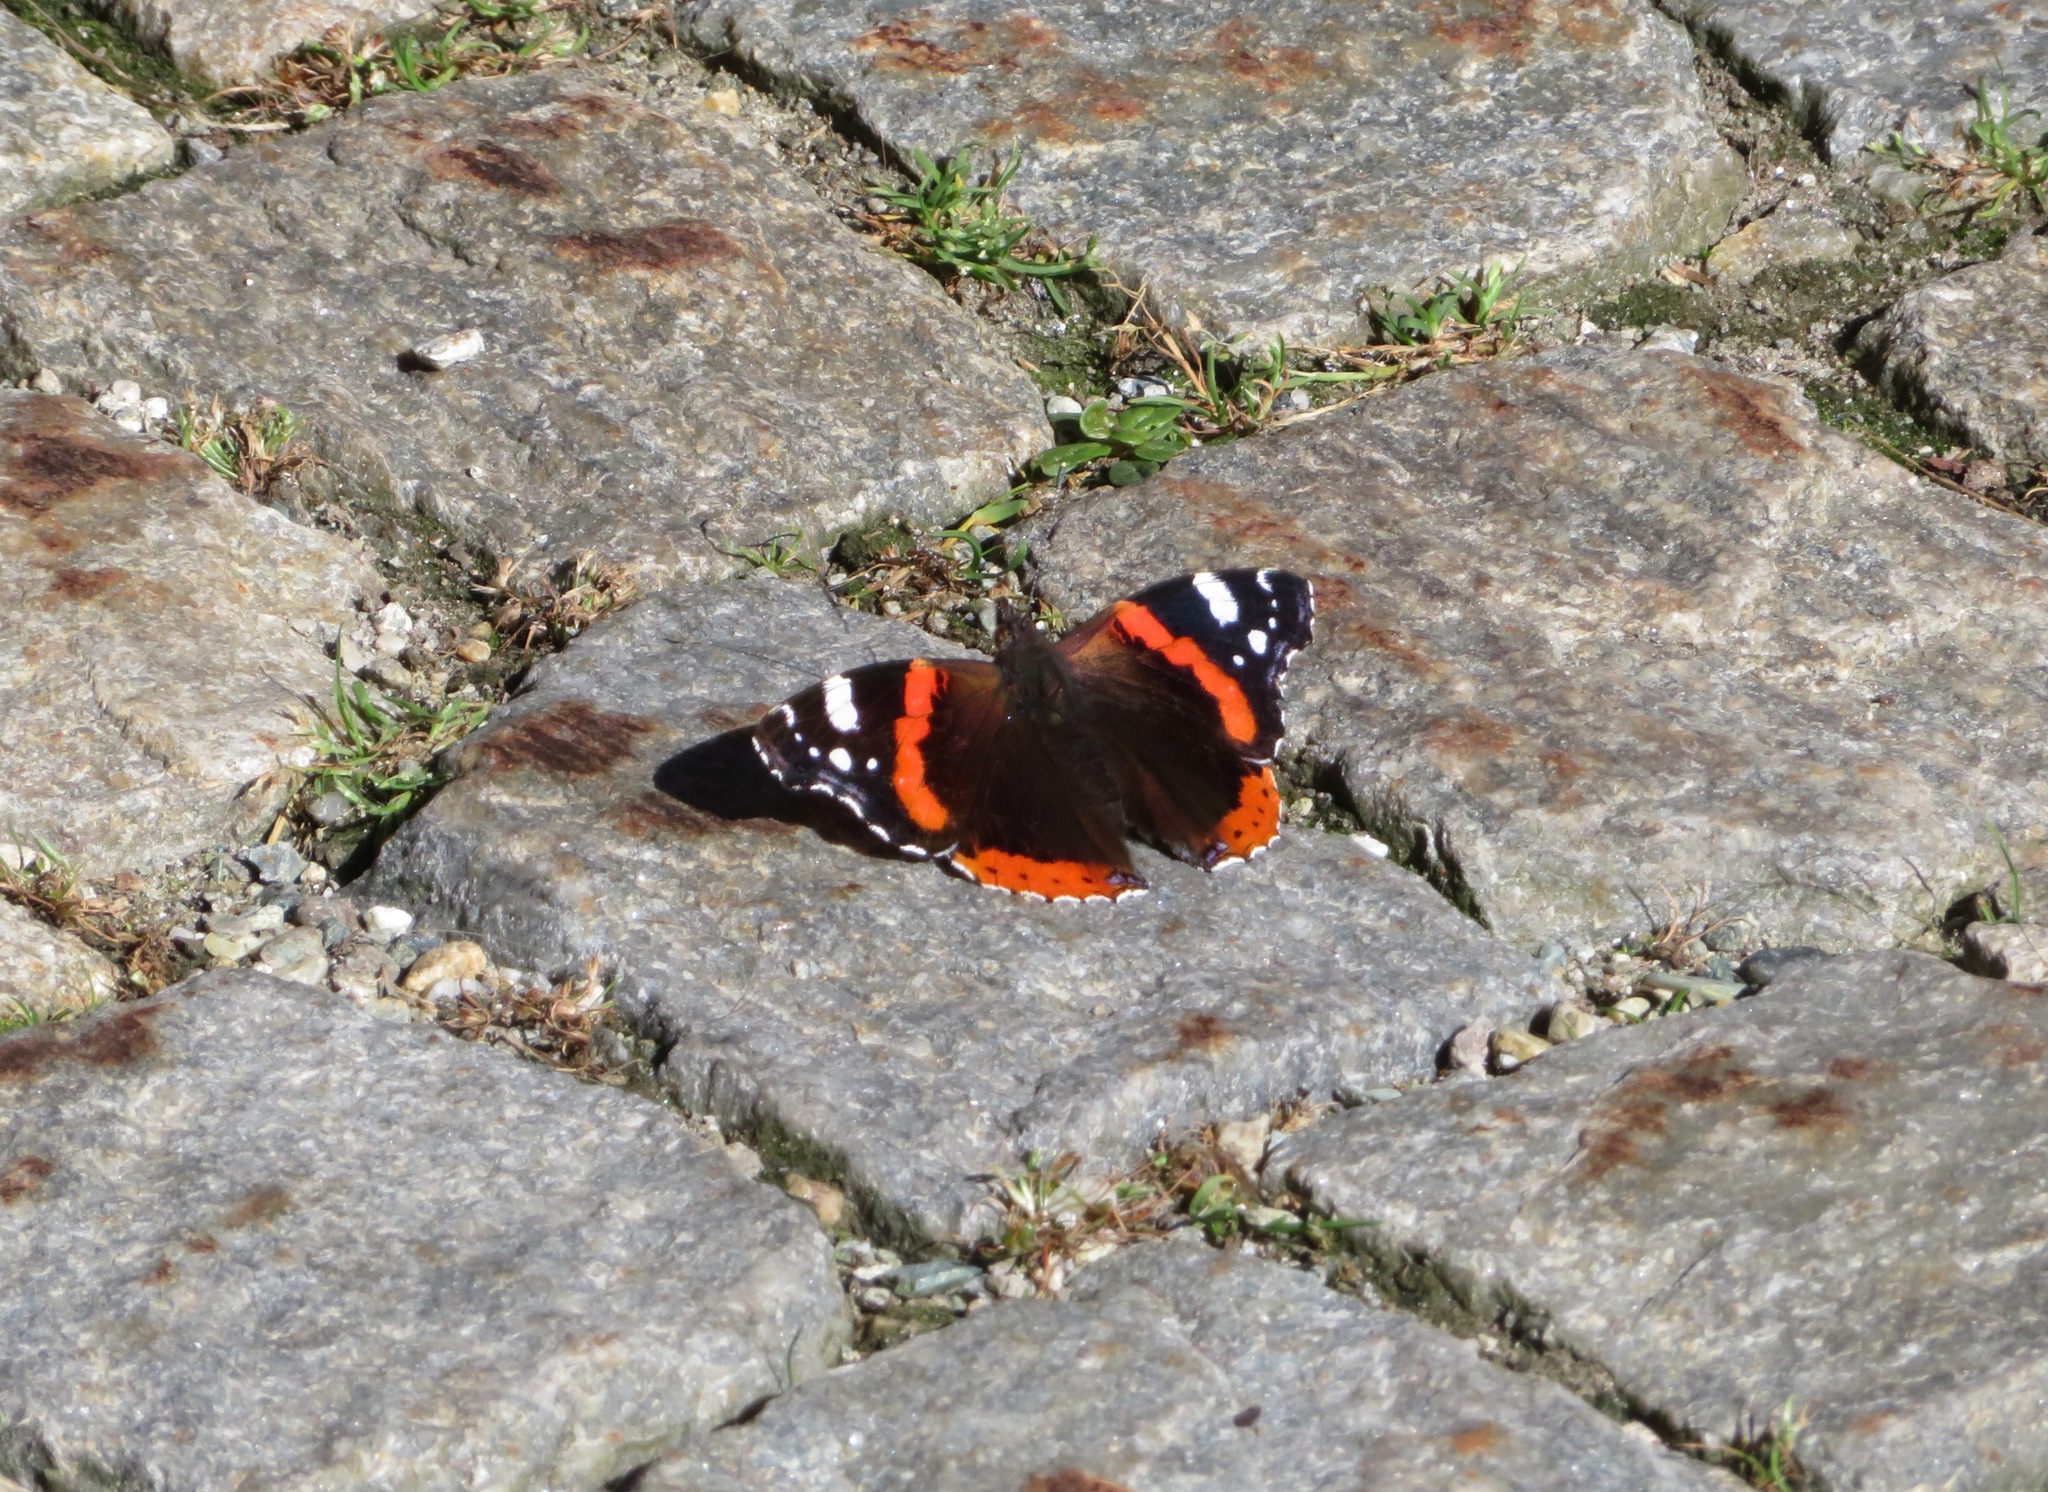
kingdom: Animalia
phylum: Arthropoda
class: Insecta
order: Lepidoptera
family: Nymphalidae
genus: Vanessa
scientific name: Vanessa atalanta
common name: Red admiral
